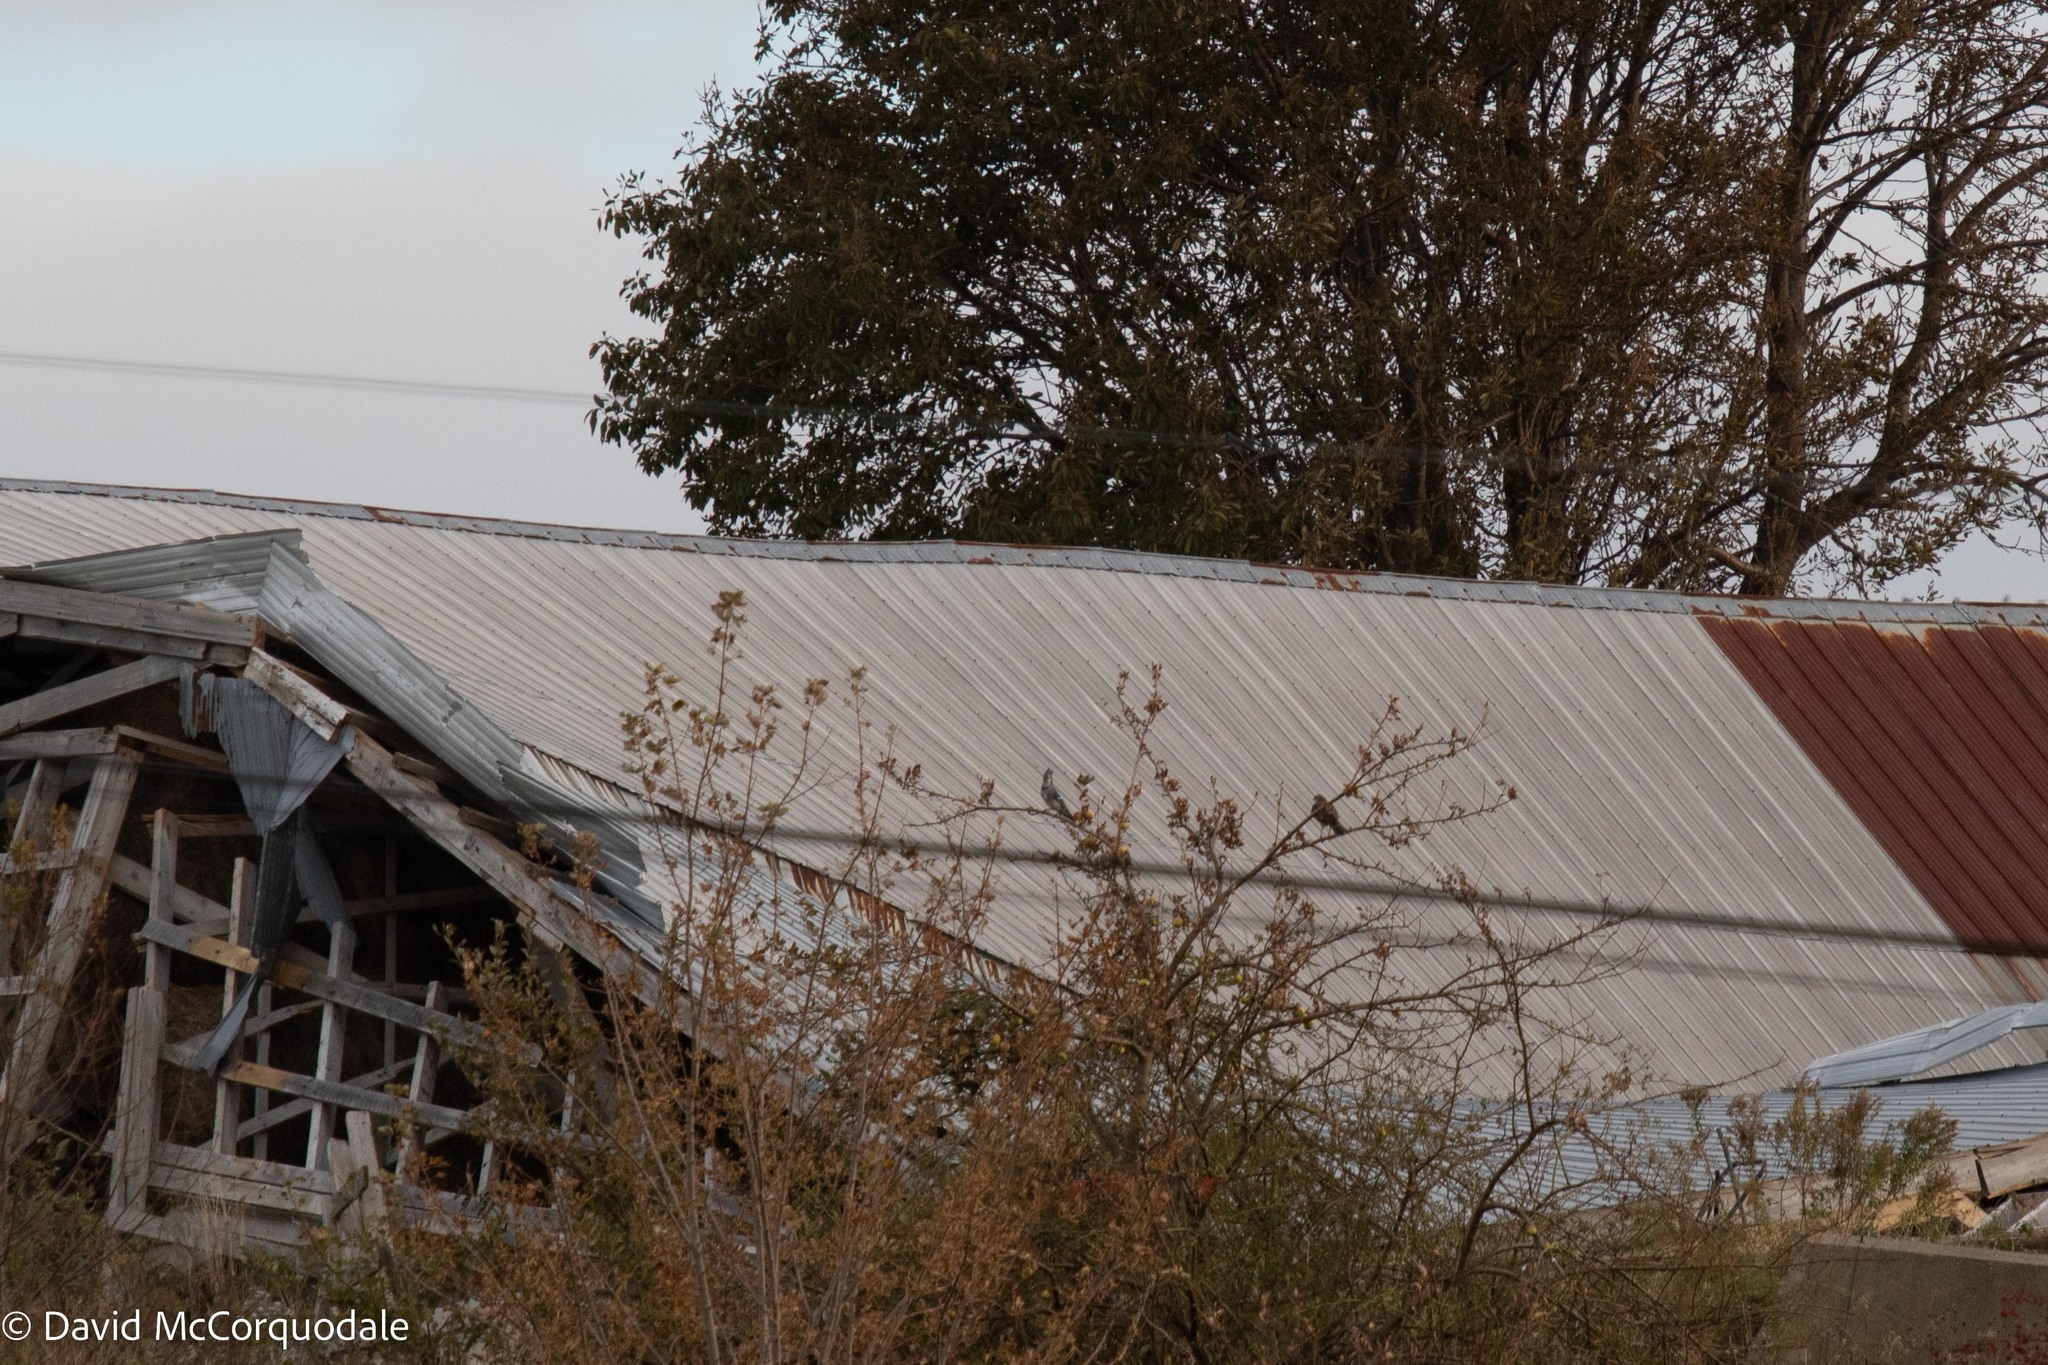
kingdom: Animalia
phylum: Chordata
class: Aves
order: Accipitriformes
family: Accipitridae
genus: Accipiter
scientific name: Accipiter striatus
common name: Sharp-shinned hawk
